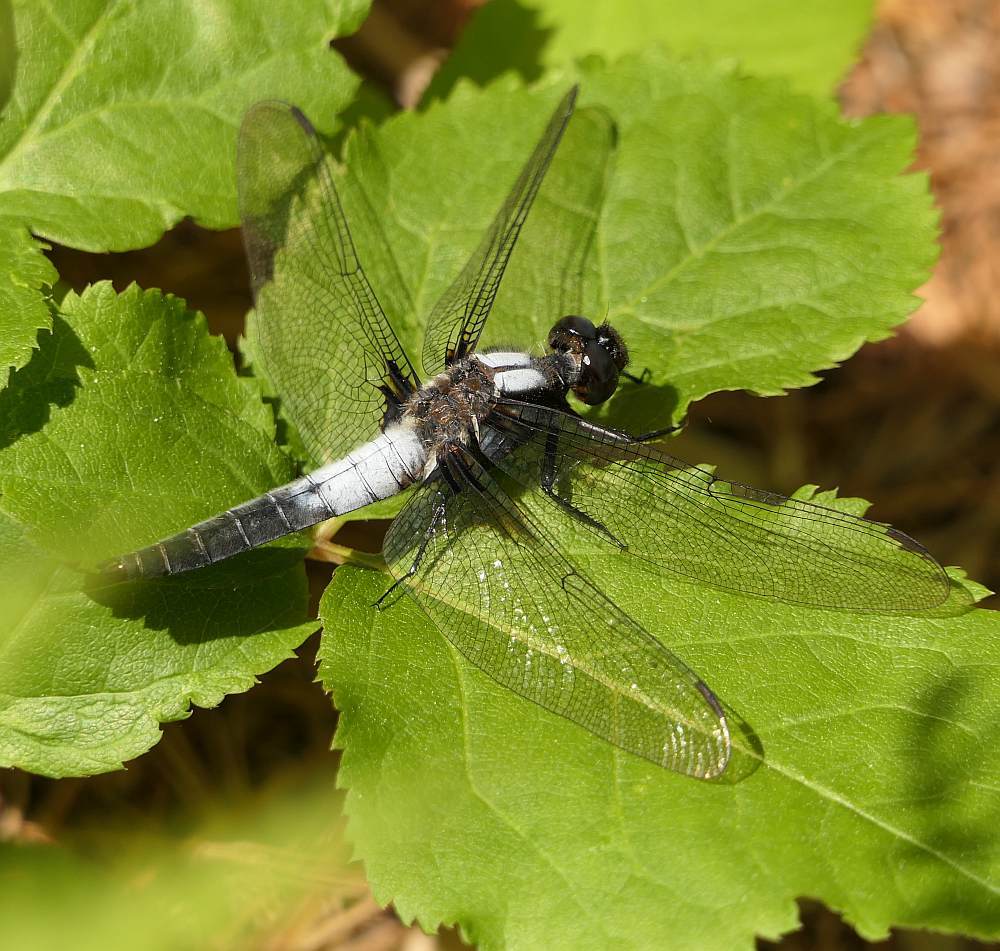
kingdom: Animalia
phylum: Arthropoda
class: Insecta
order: Odonata
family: Libellulidae
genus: Ladona
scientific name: Ladona julia
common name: Chalk-fronted corporal
